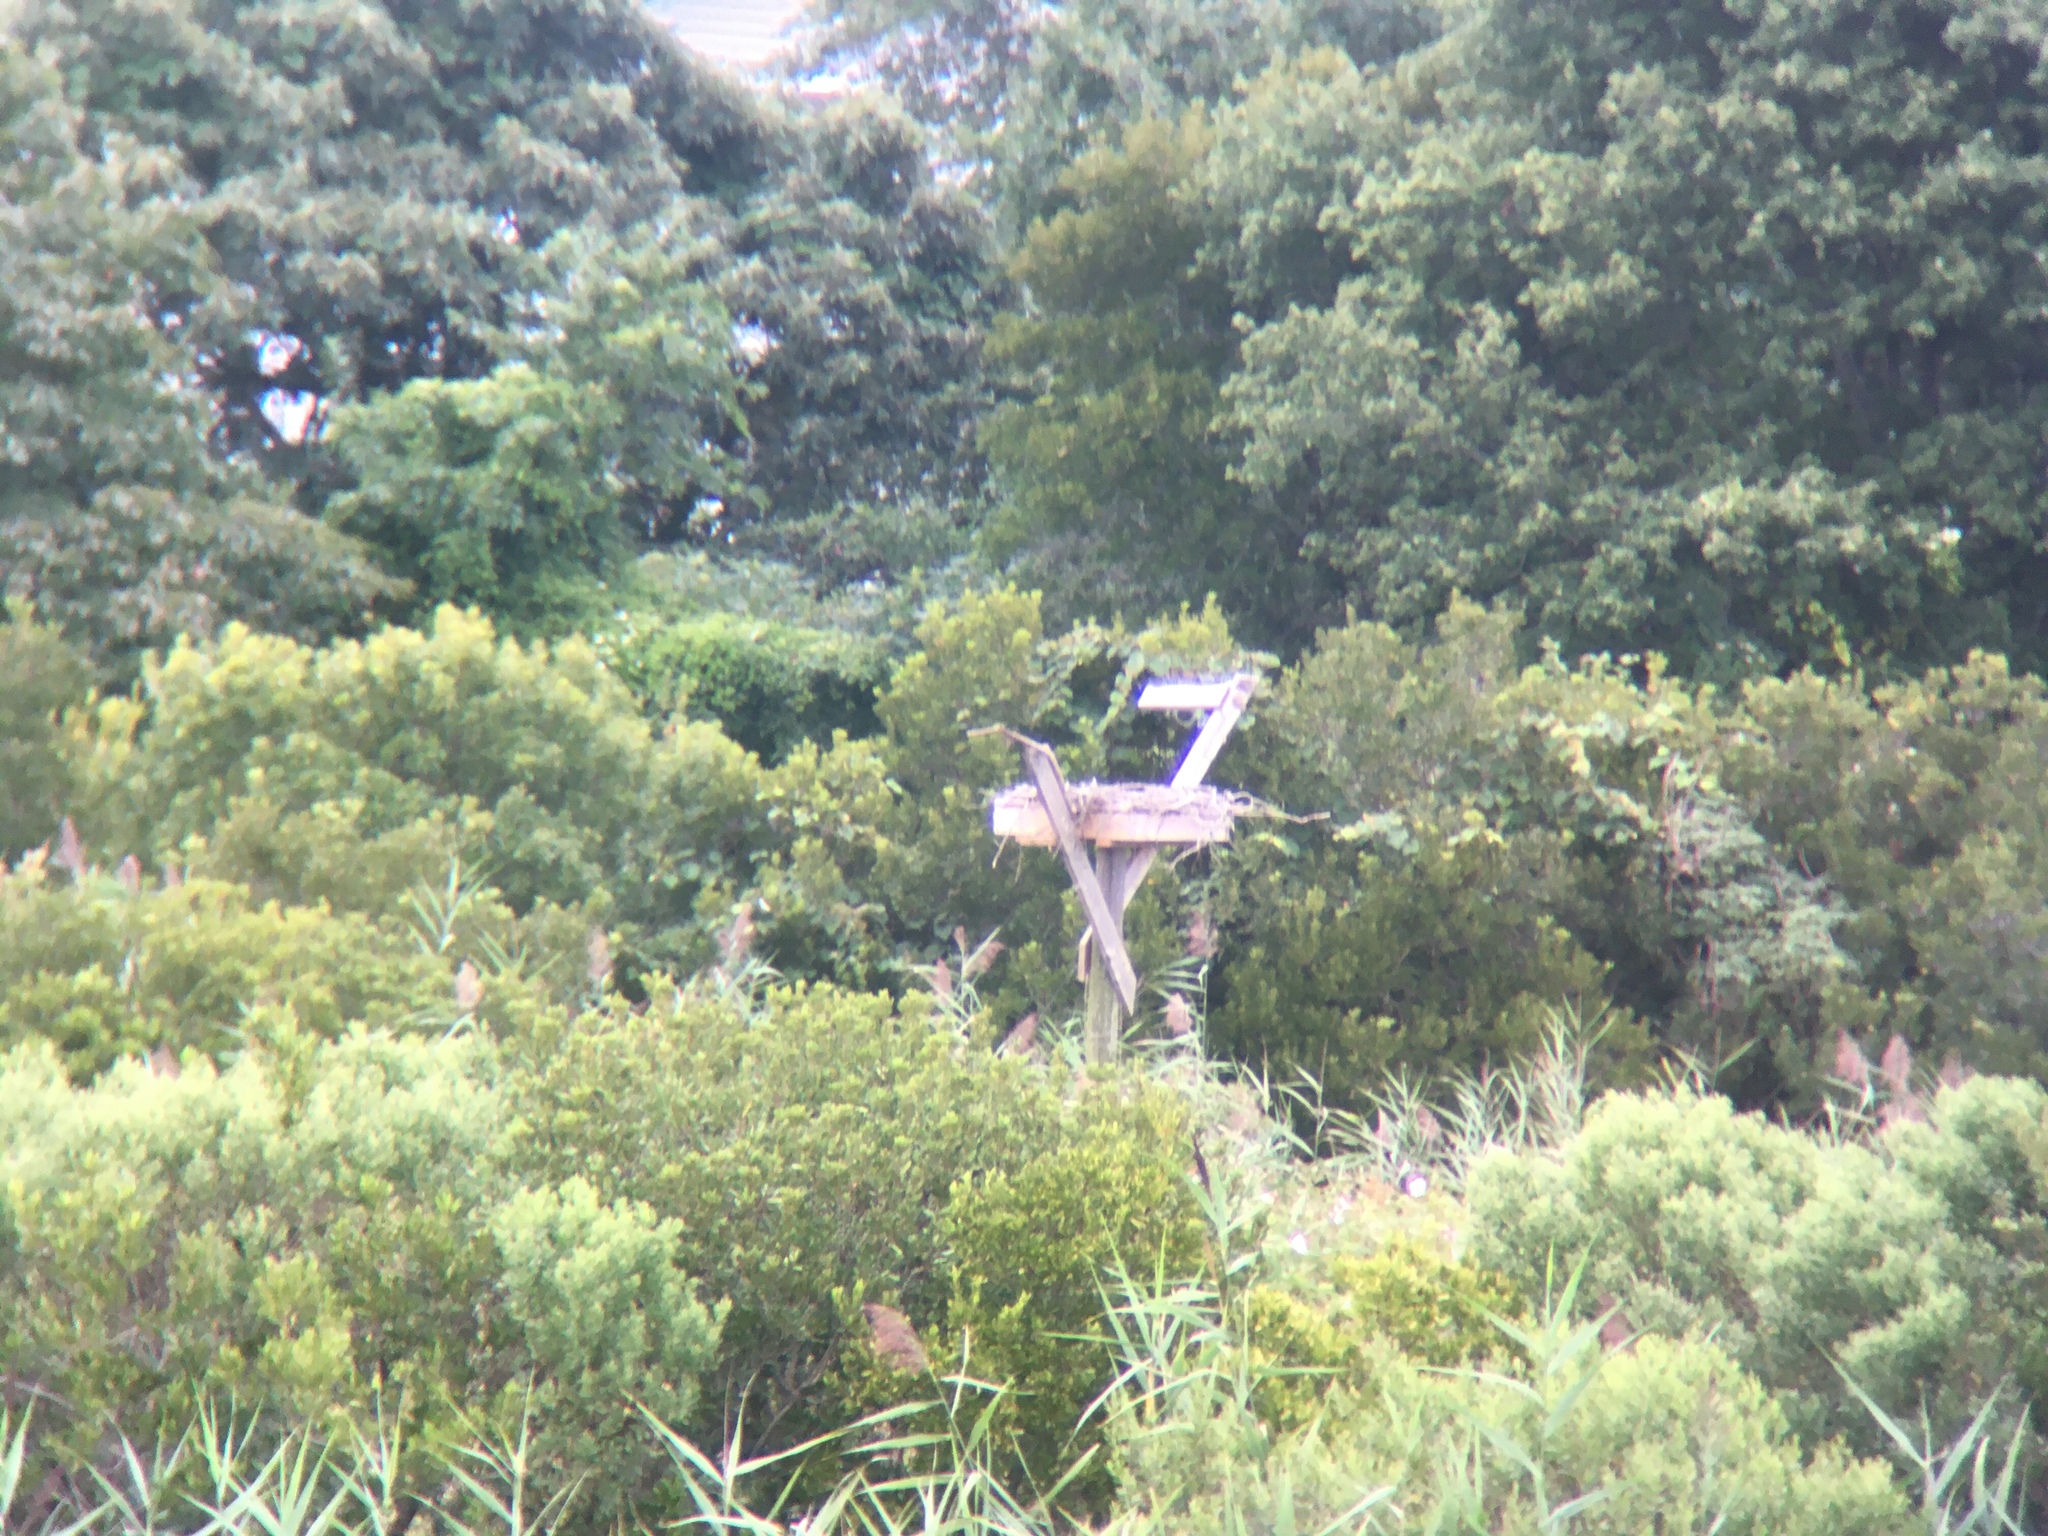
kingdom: Animalia
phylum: Chordata
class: Aves
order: Accipitriformes
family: Pandionidae
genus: Pandion
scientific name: Pandion haliaetus
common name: Osprey
